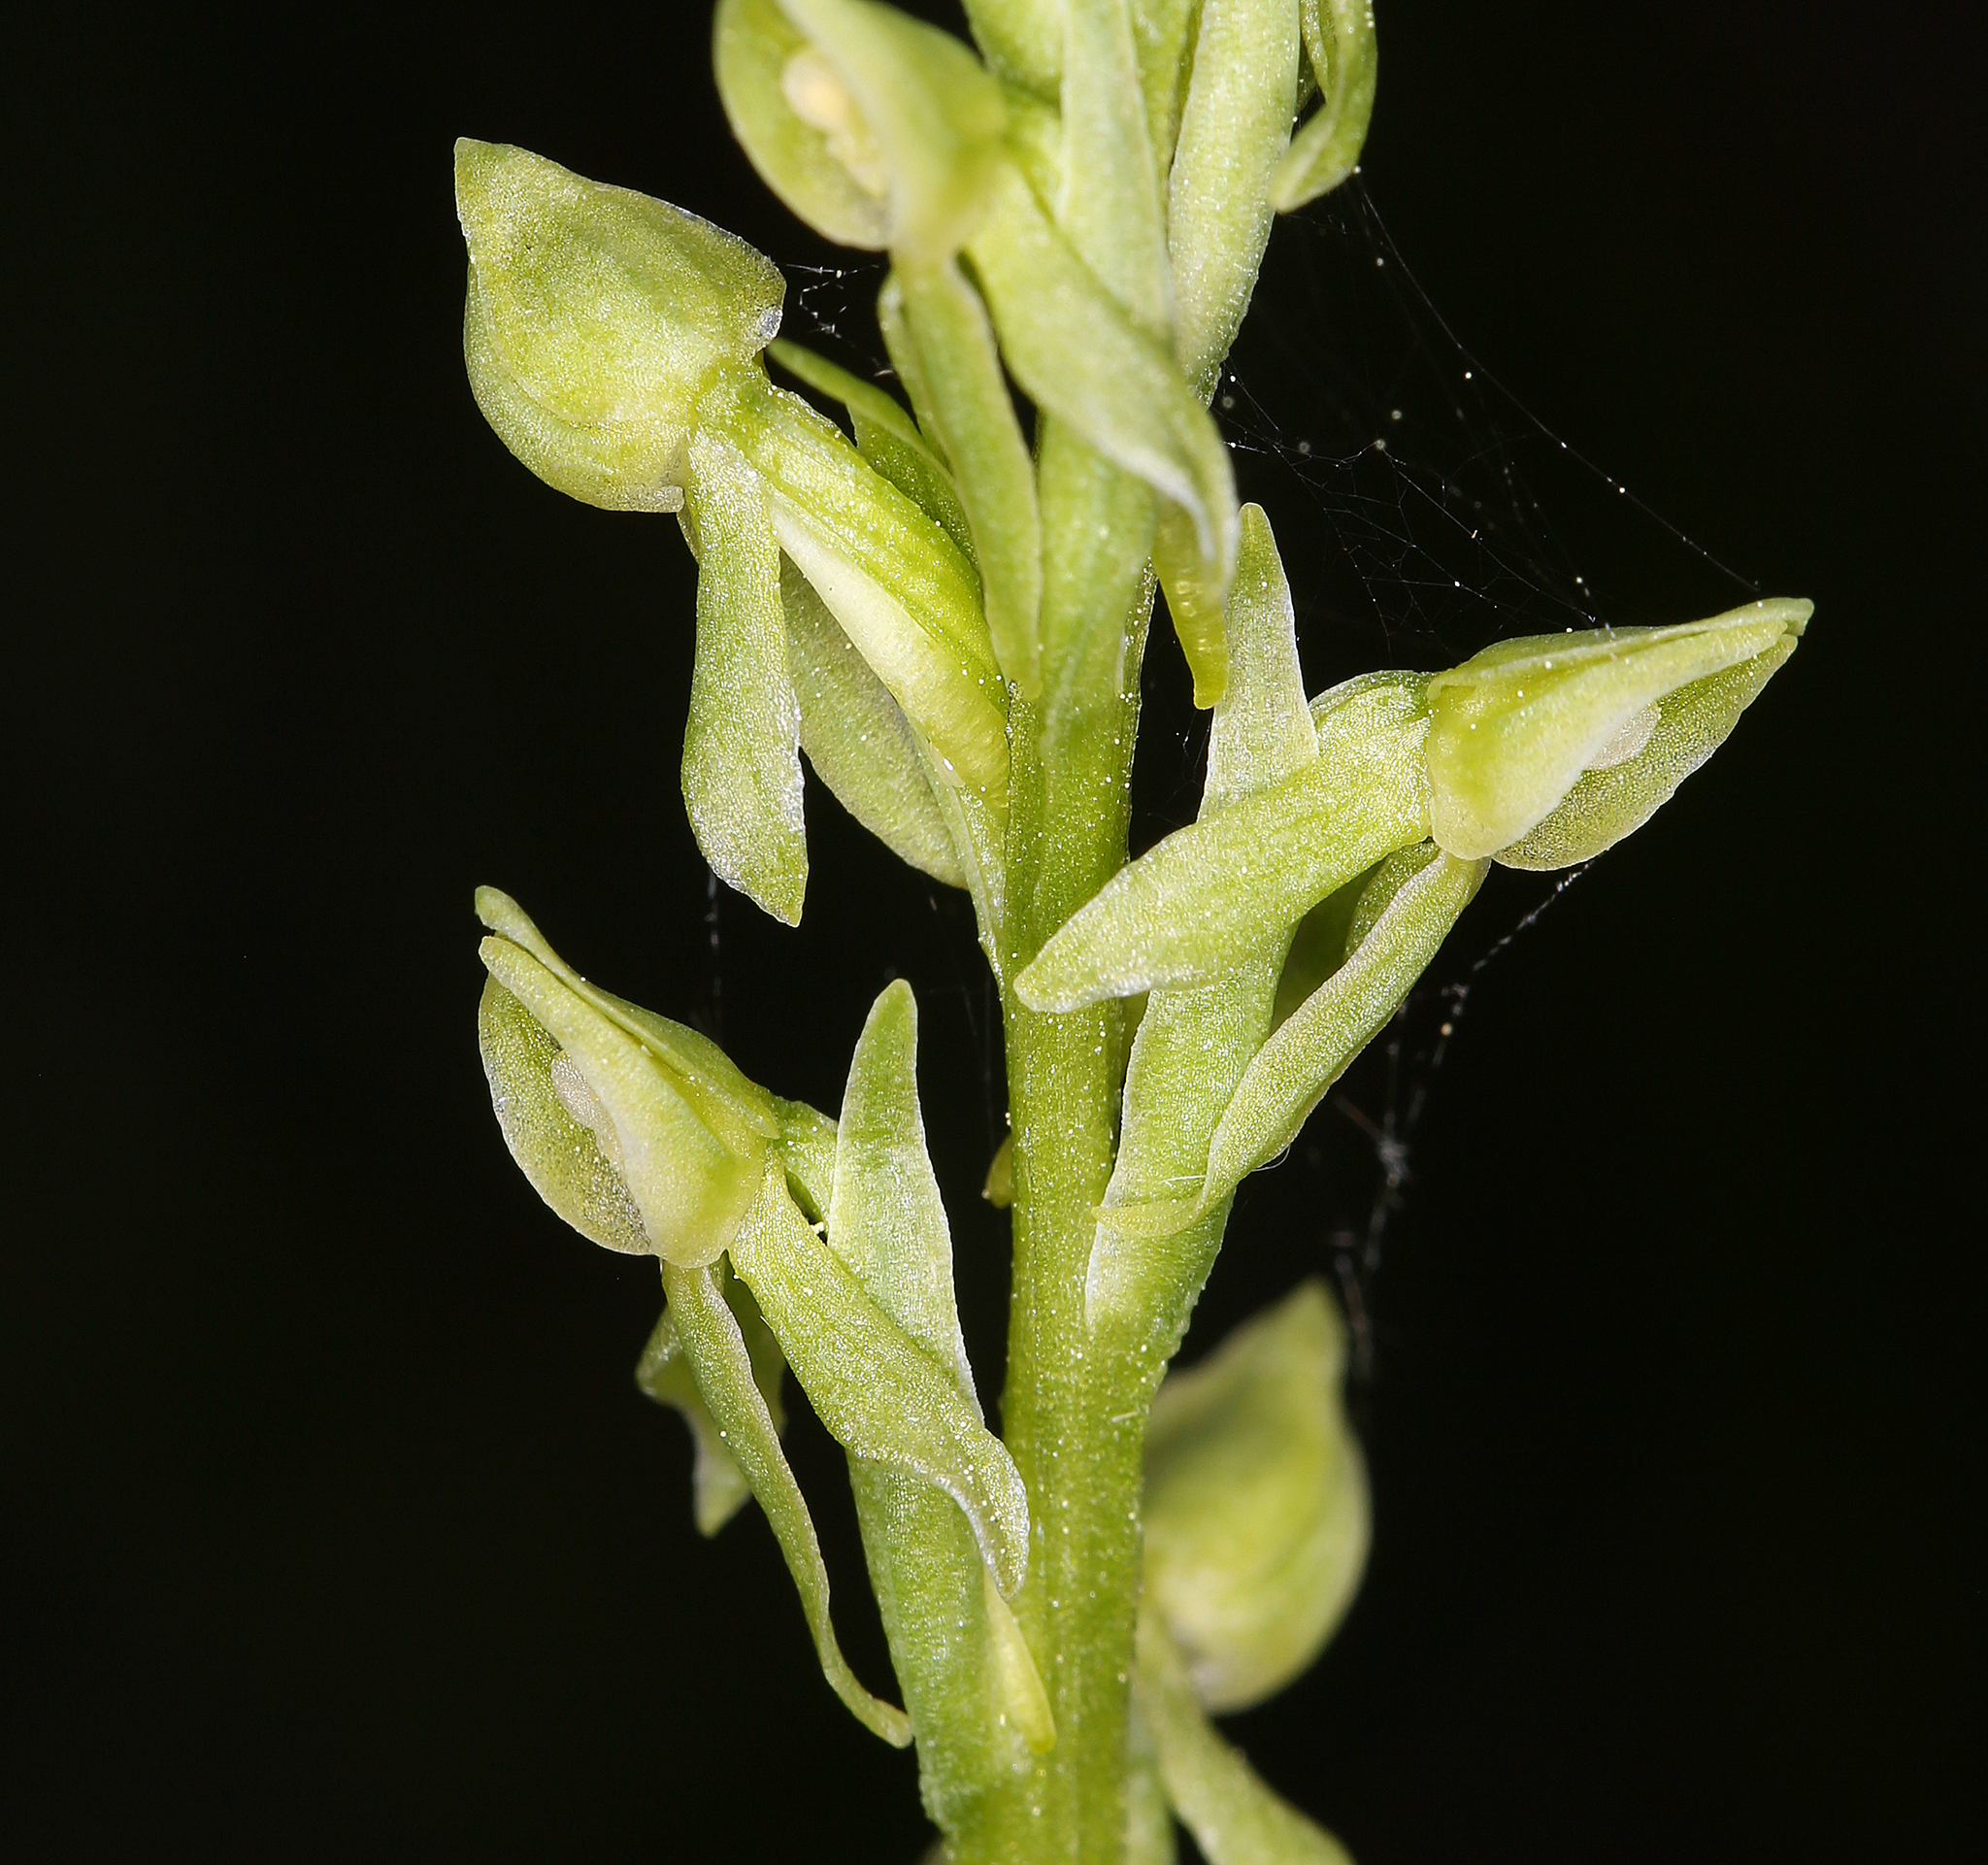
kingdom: Plantae
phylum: Tracheophyta
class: Liliopsida
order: Asparagales
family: Orchidaceae
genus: Platanthera
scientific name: Platanthera sparsiflora
